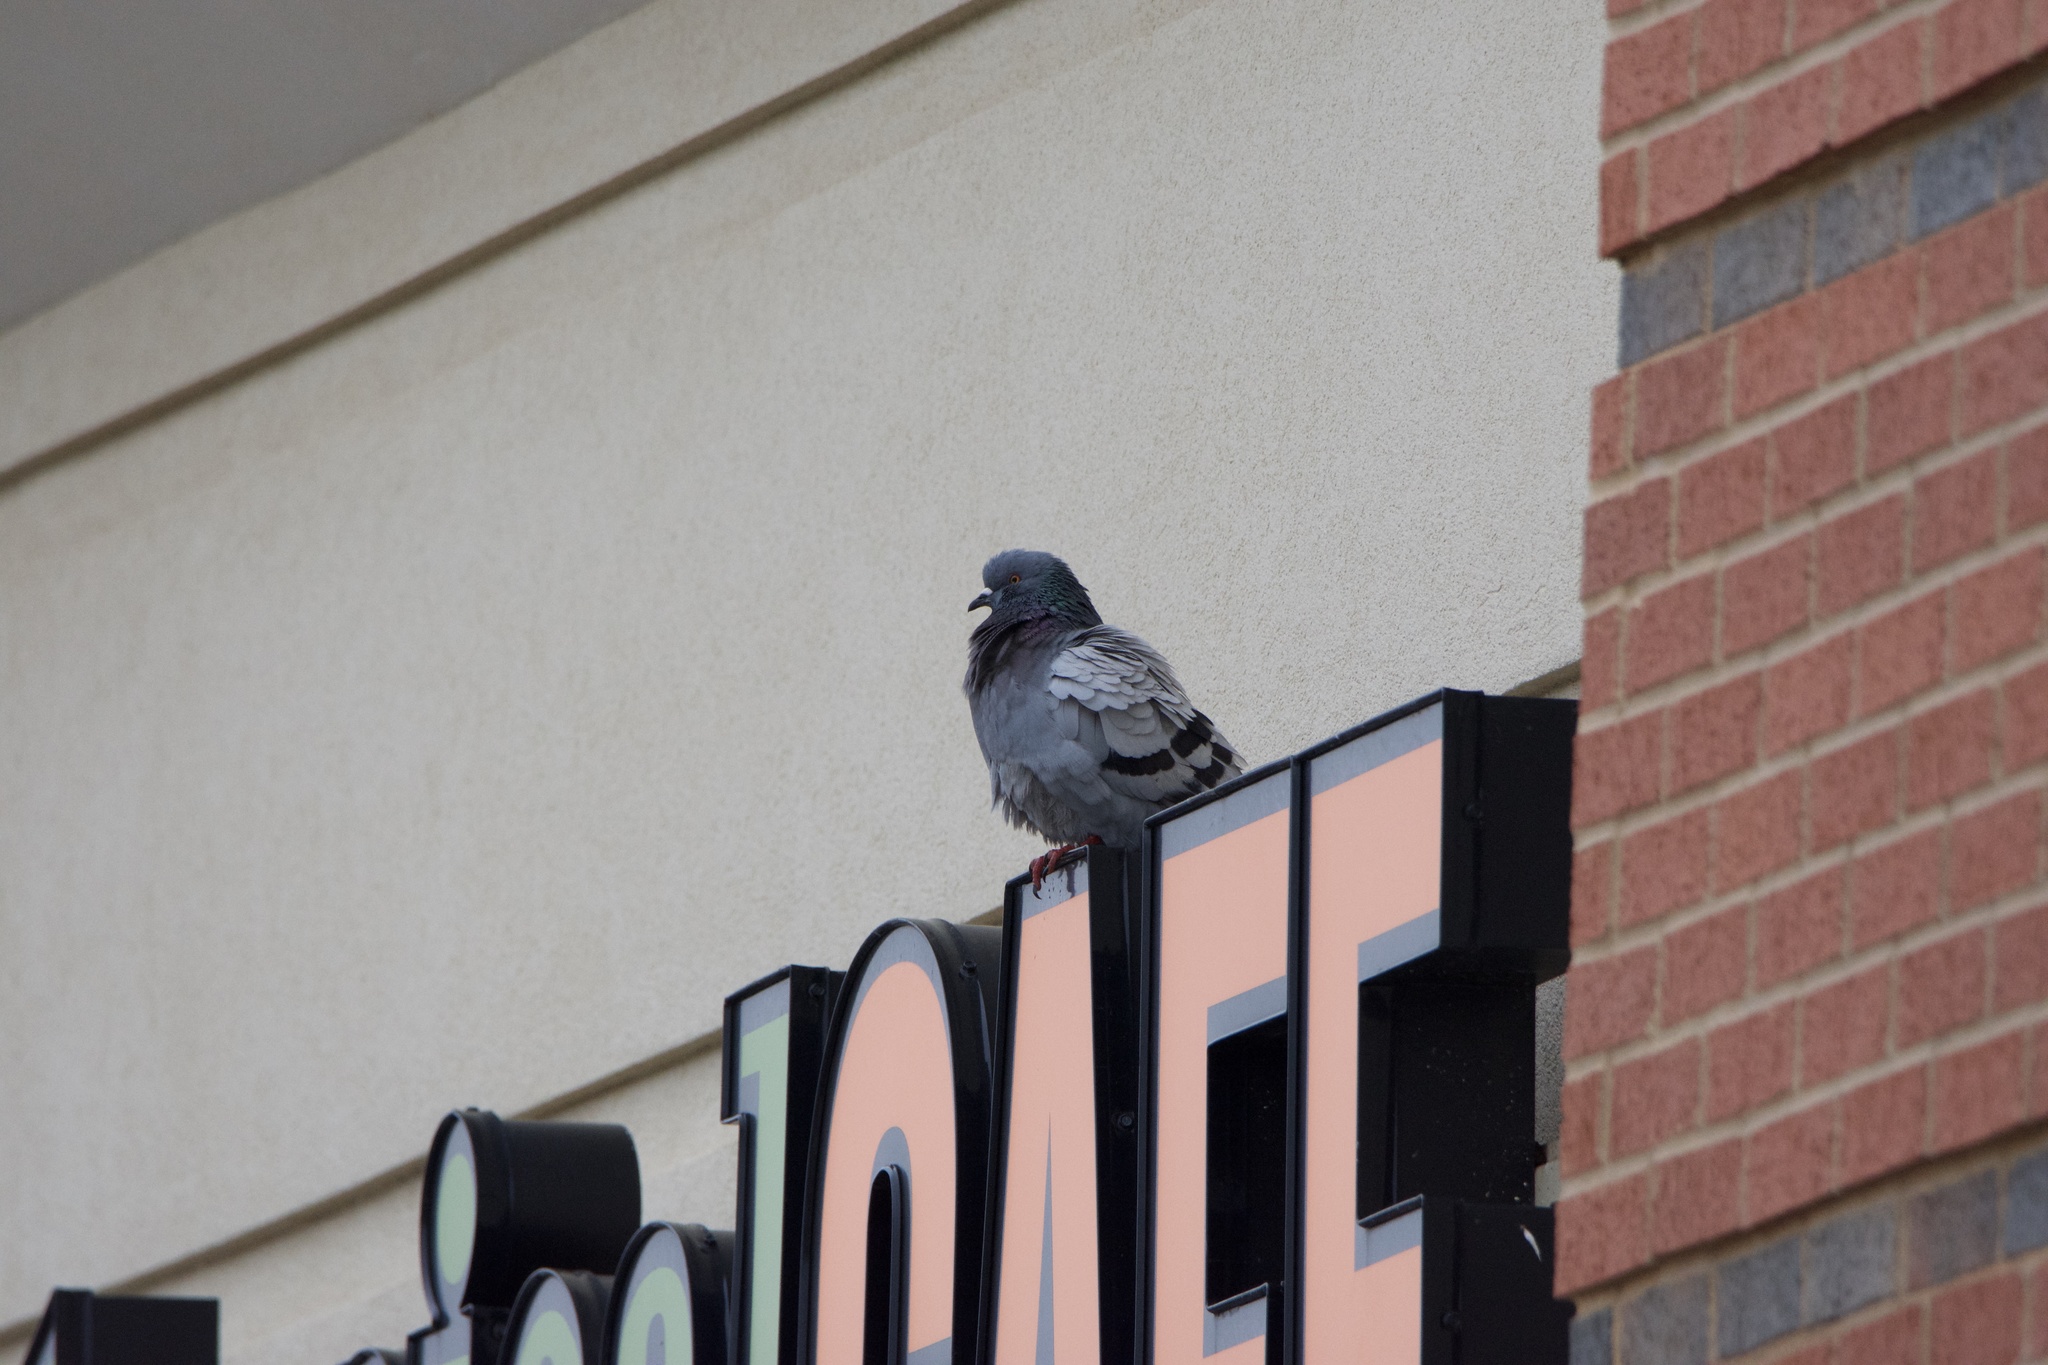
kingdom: Animalia
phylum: Chordata
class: Aves
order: Columbiformes
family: Columbidae
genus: Columba
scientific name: Columba livia
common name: Rock pigeon
